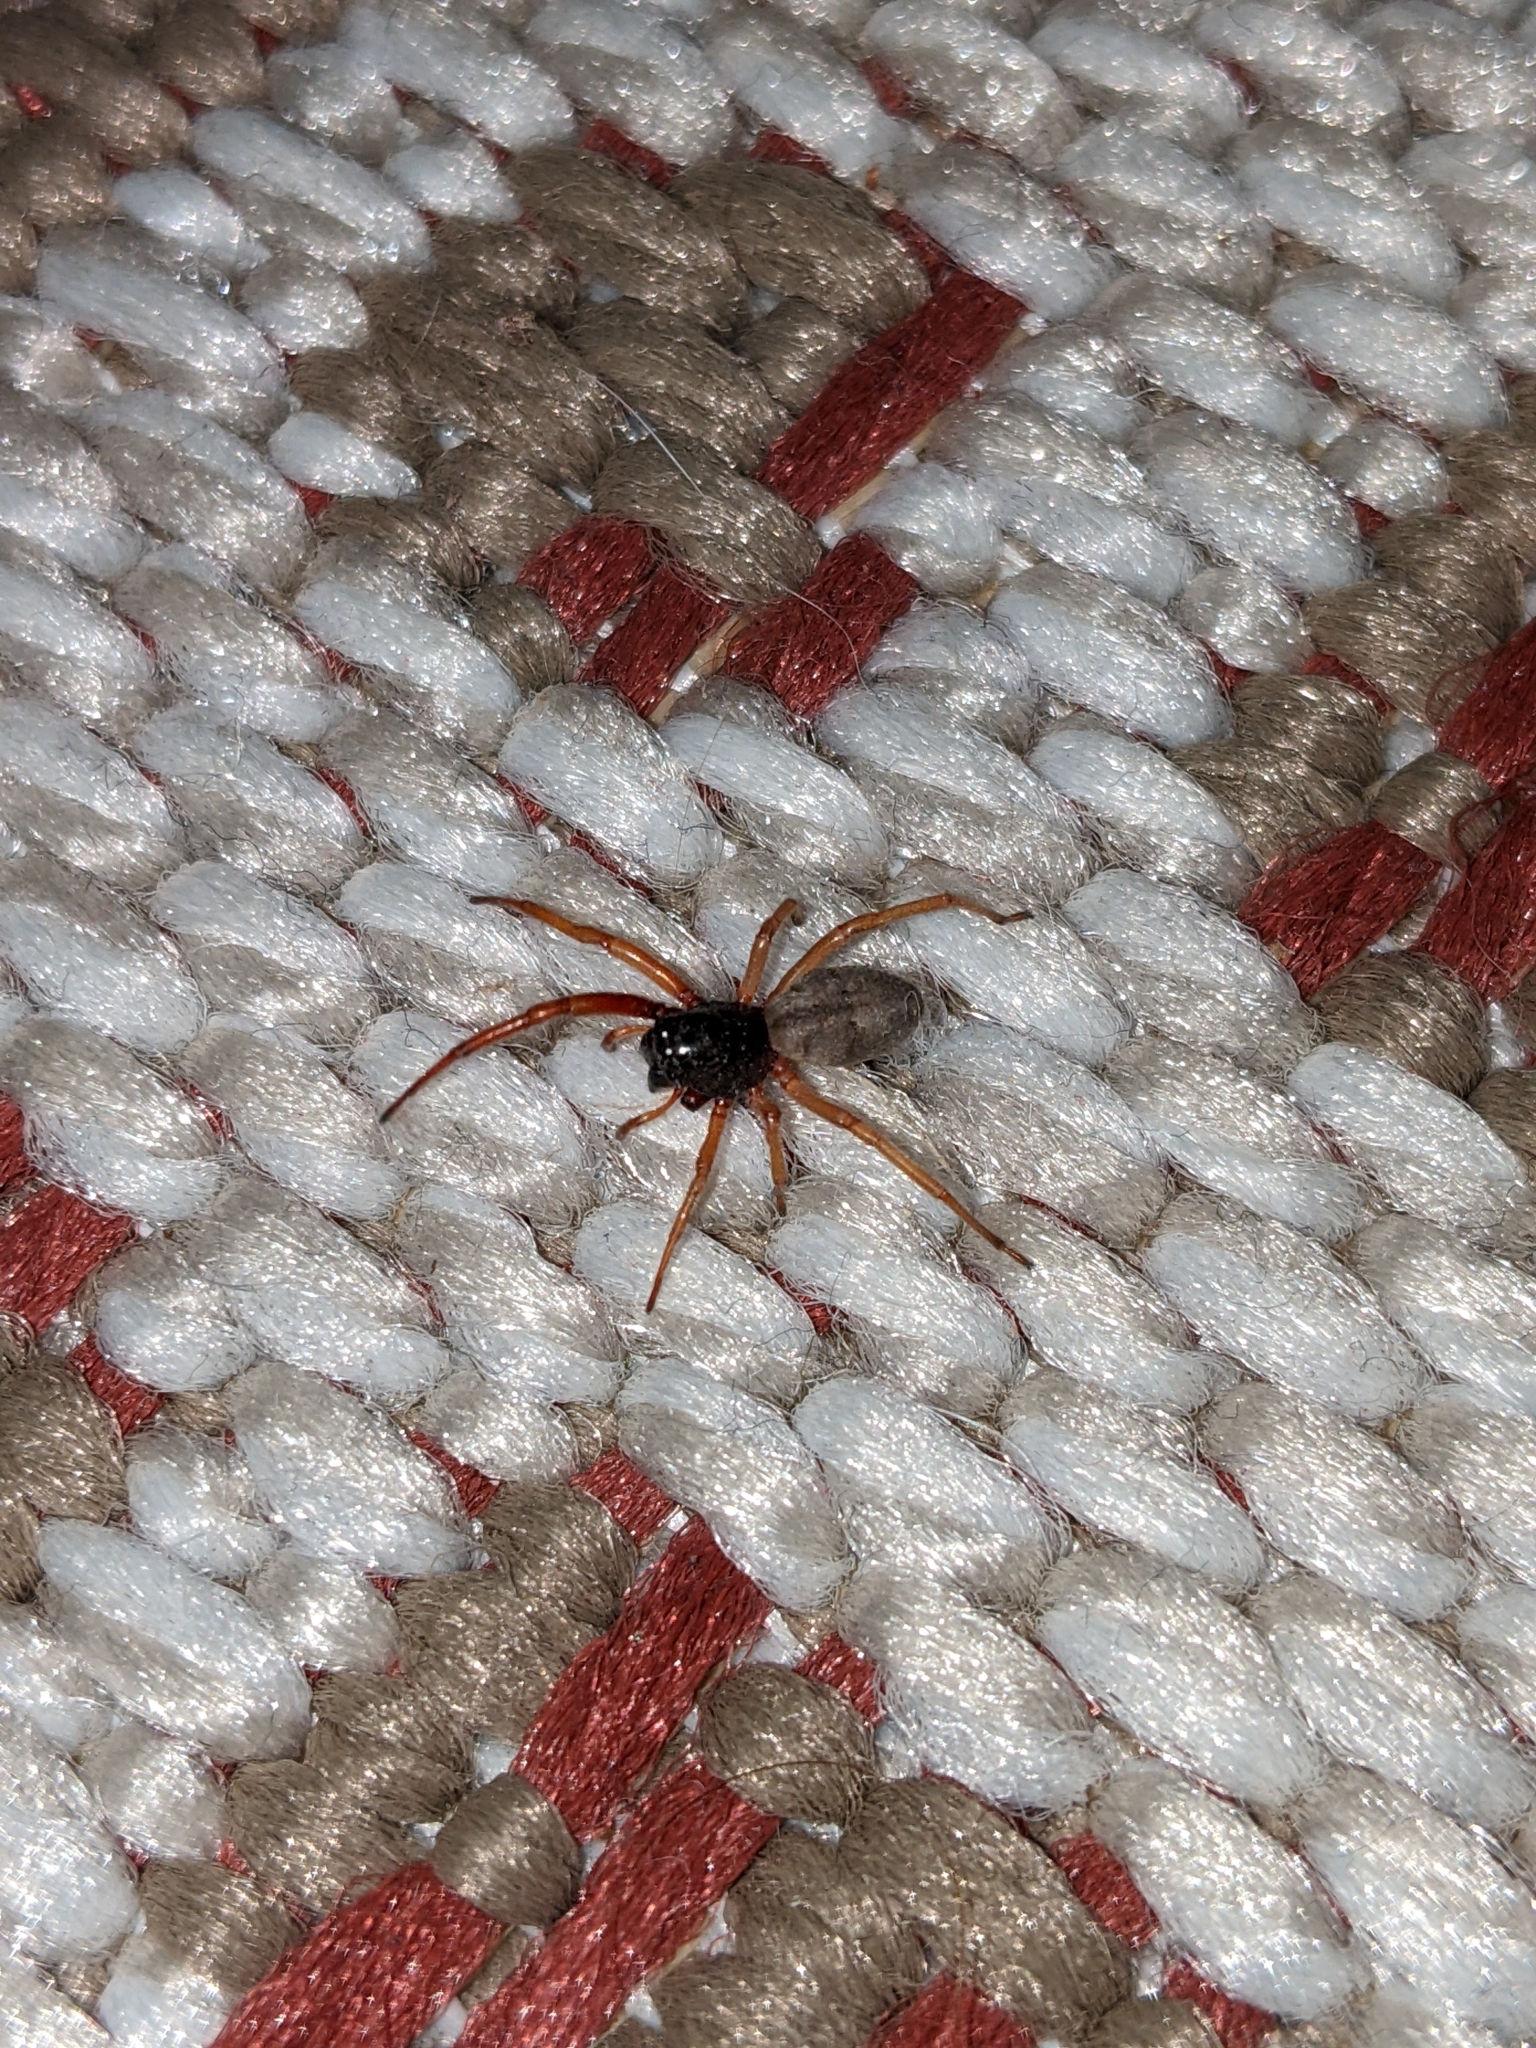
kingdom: Animalia
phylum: Arthropoda
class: Arachnida
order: Araneae
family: Trachelidae
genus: Trachelas
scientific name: Trachelas tranquillus
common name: Broad-faced sac spider
